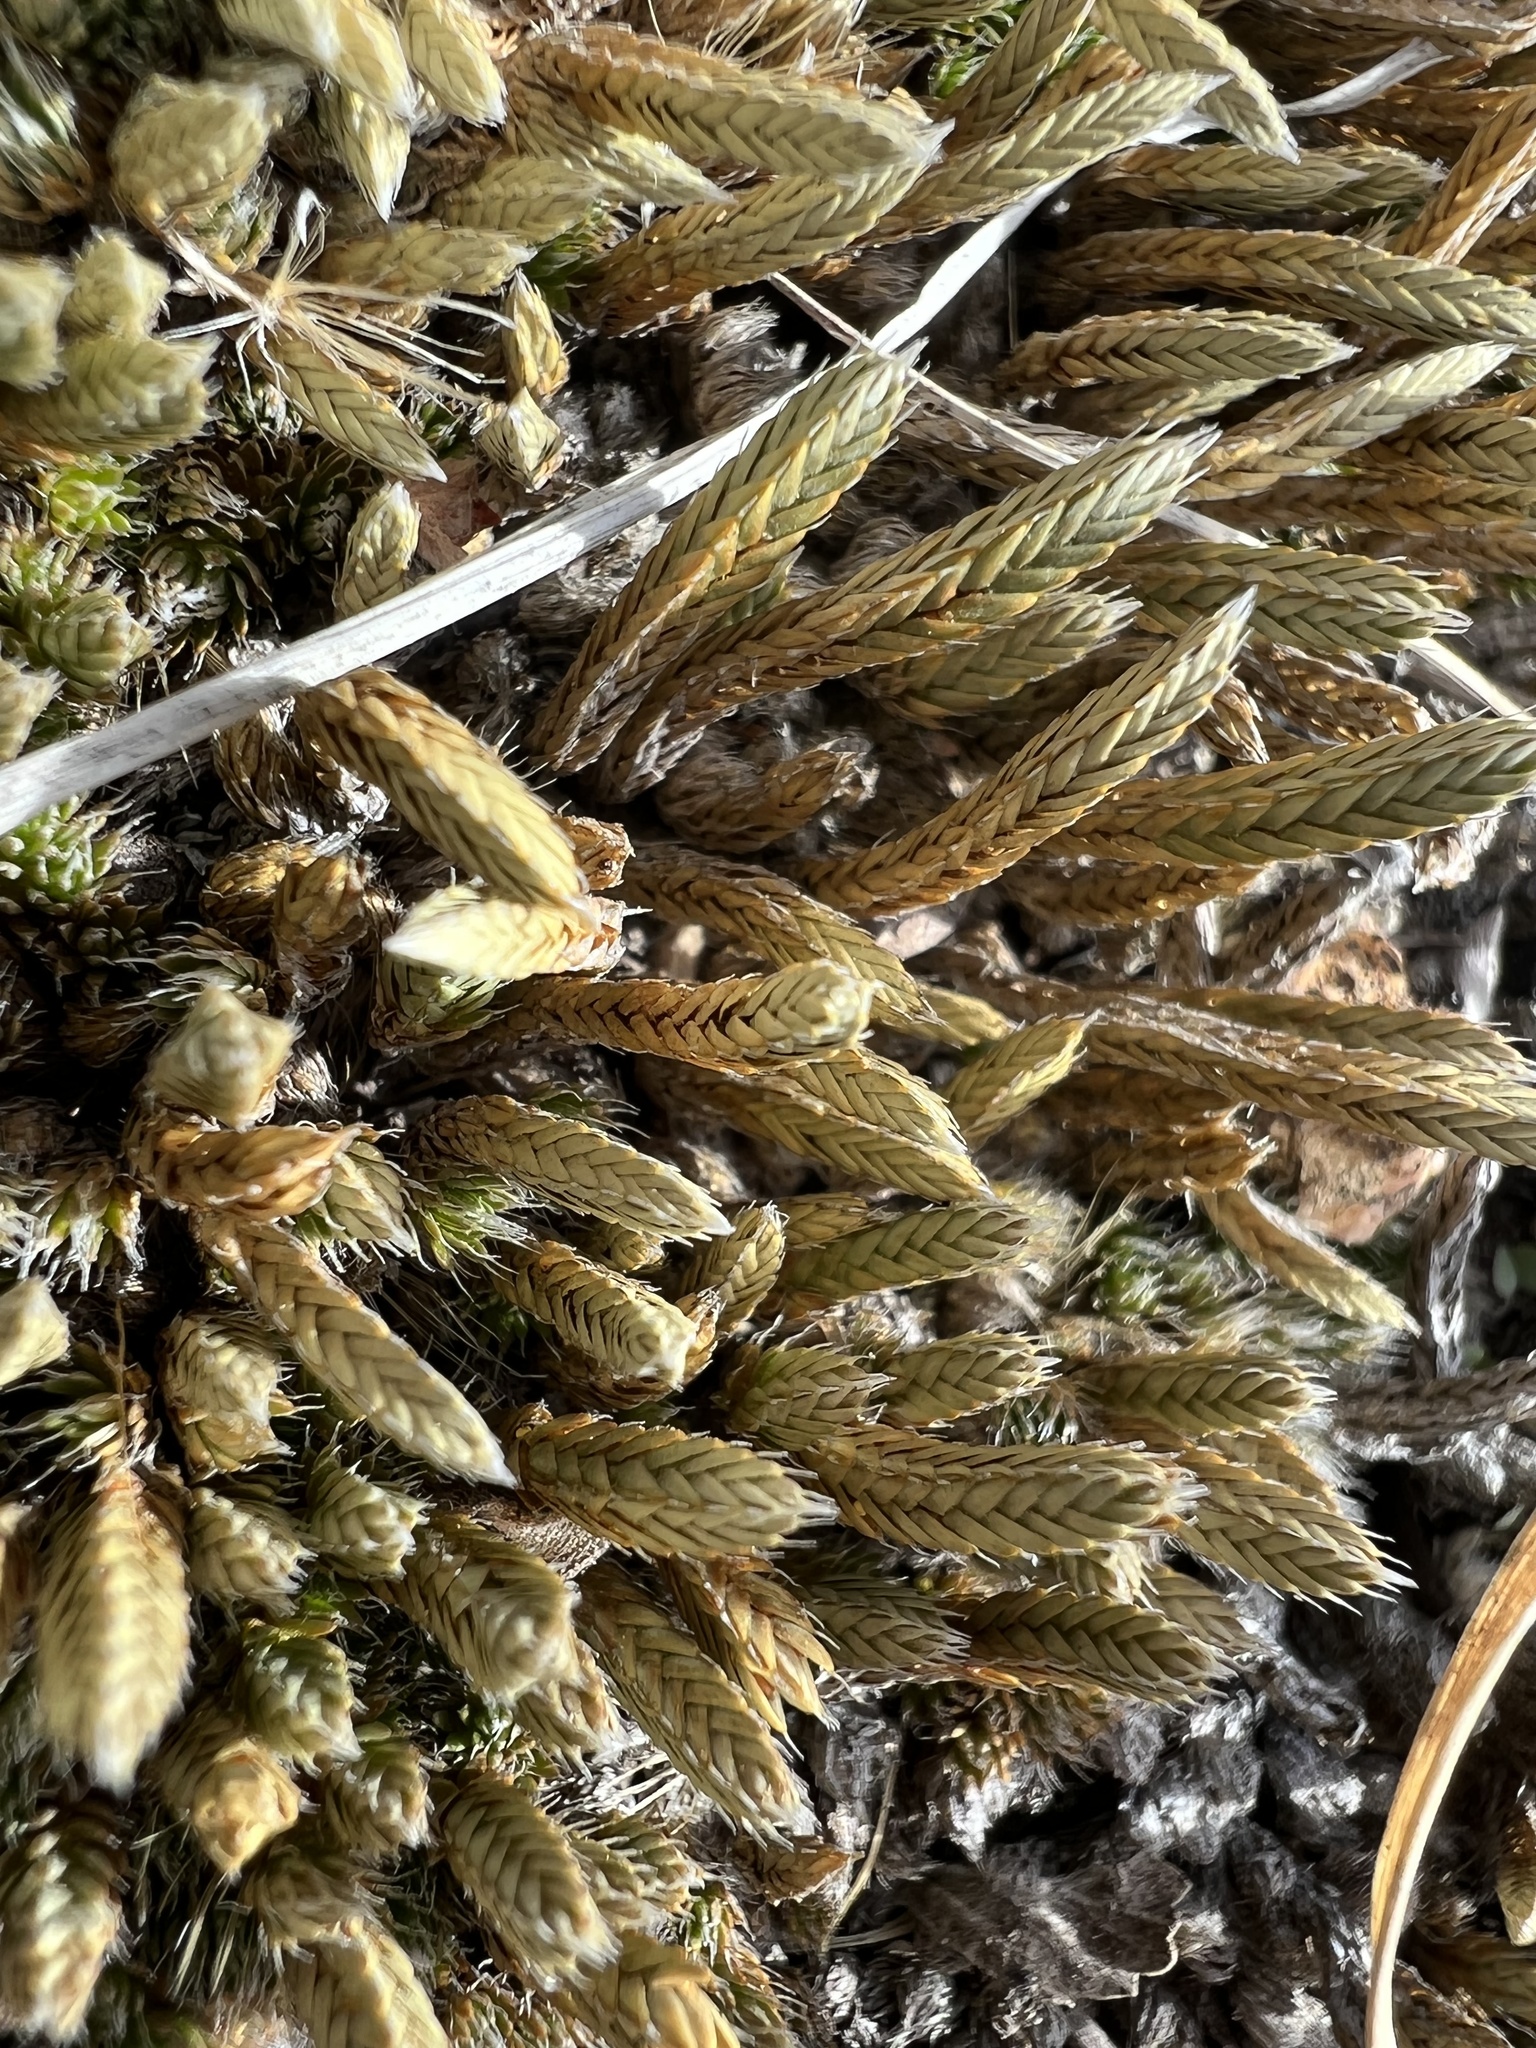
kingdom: Plantae
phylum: Tracheophyta
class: Lycopodiopsida
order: Selaginellales
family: Selaginellaceae
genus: Selaginella
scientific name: Selaginella densa
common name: Mountain spike-moss
